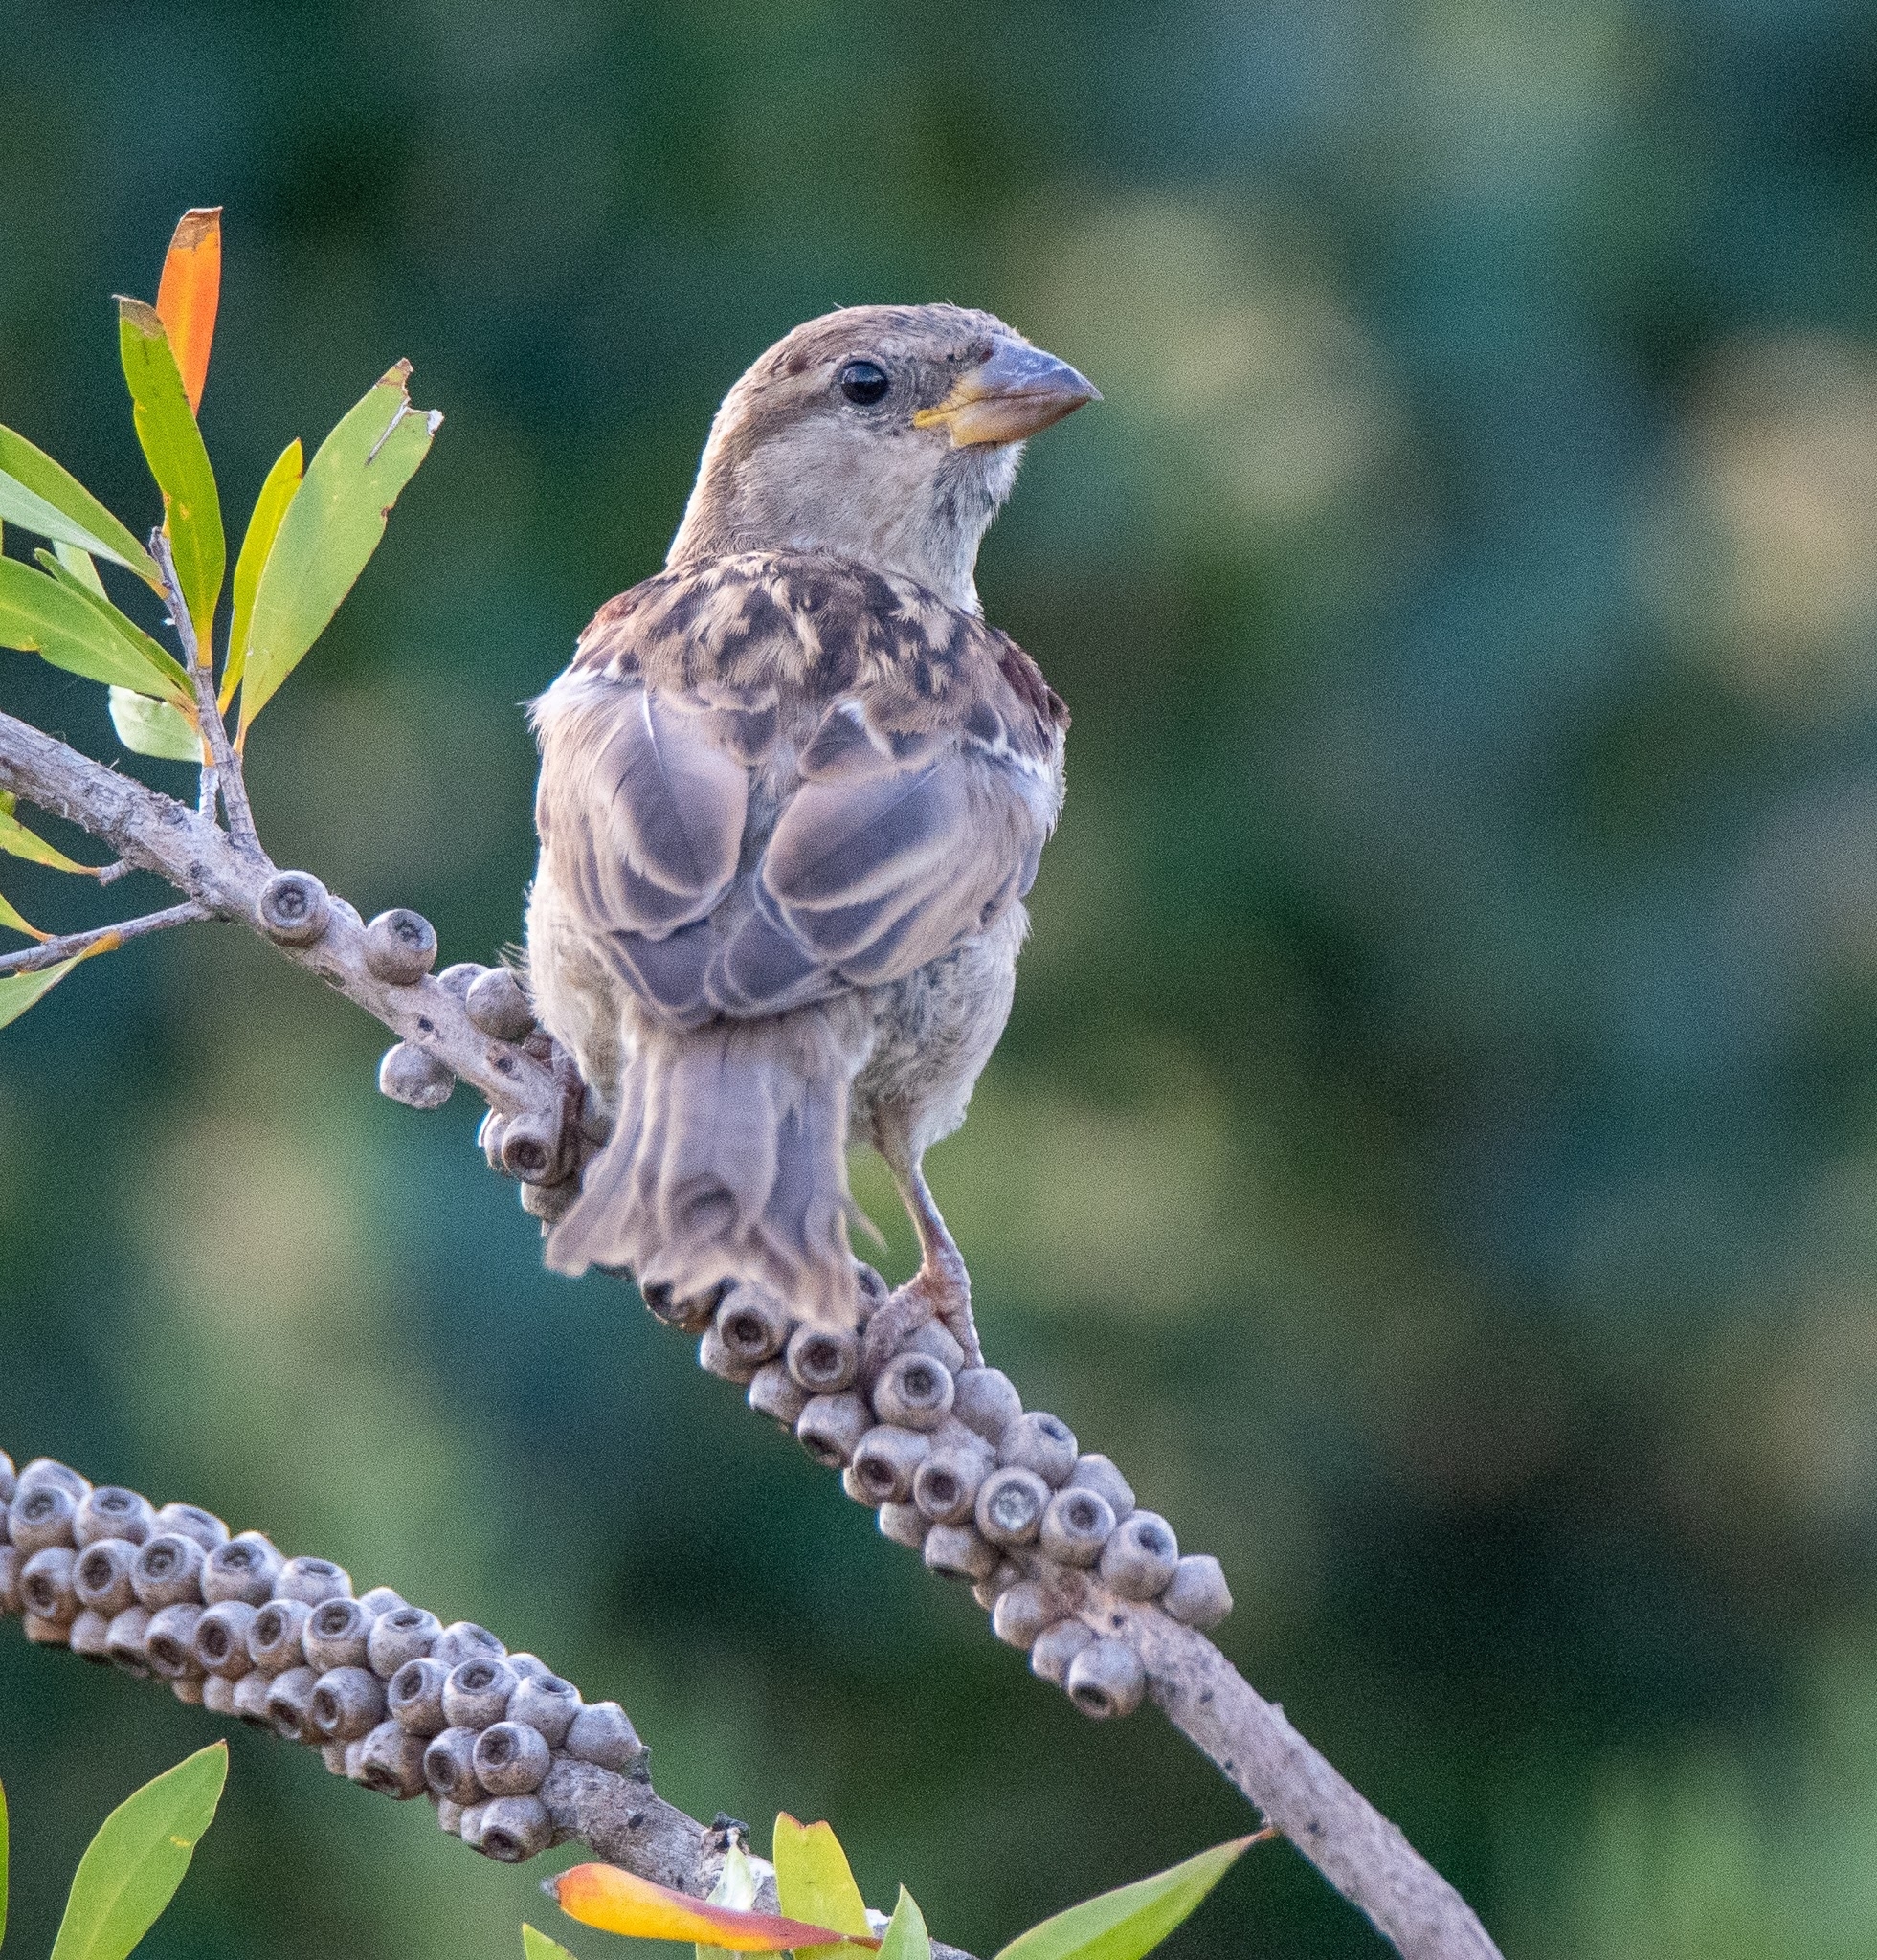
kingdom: Animalia
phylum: Chordata
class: Aves
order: Passeriformes
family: Passeridae
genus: Passer
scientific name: Passer domesticus
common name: House sparrow
